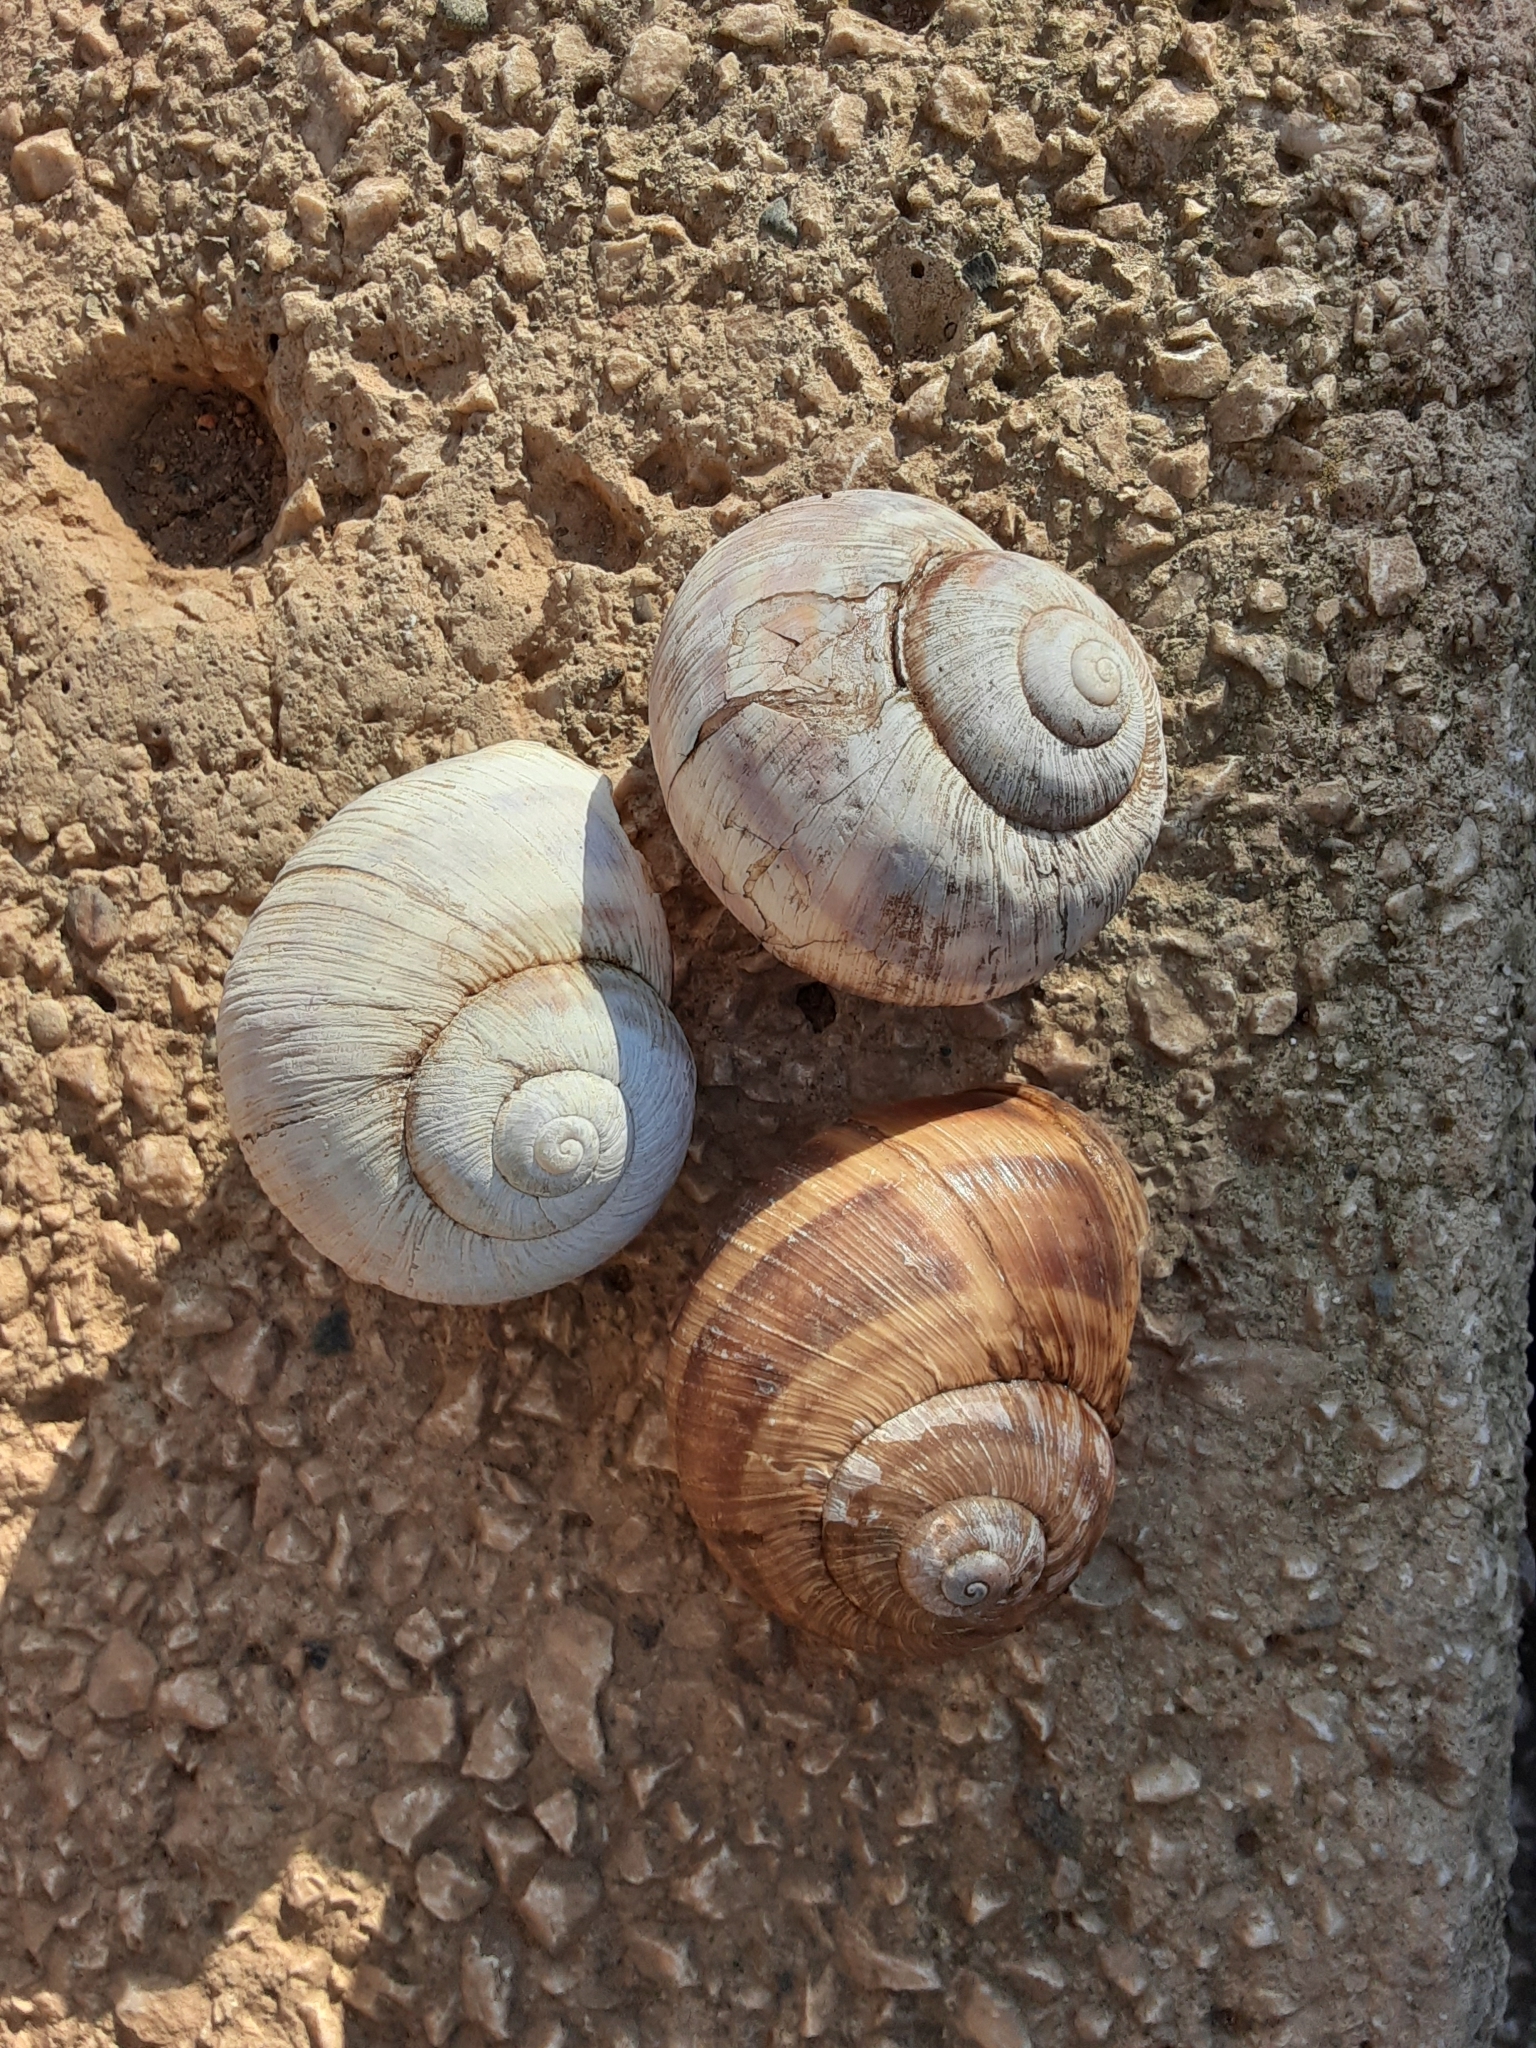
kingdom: Animalia
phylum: Mollusca
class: Gastropoda
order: Stylommatophora
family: Helicidae
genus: Helix
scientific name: Helix buchii
